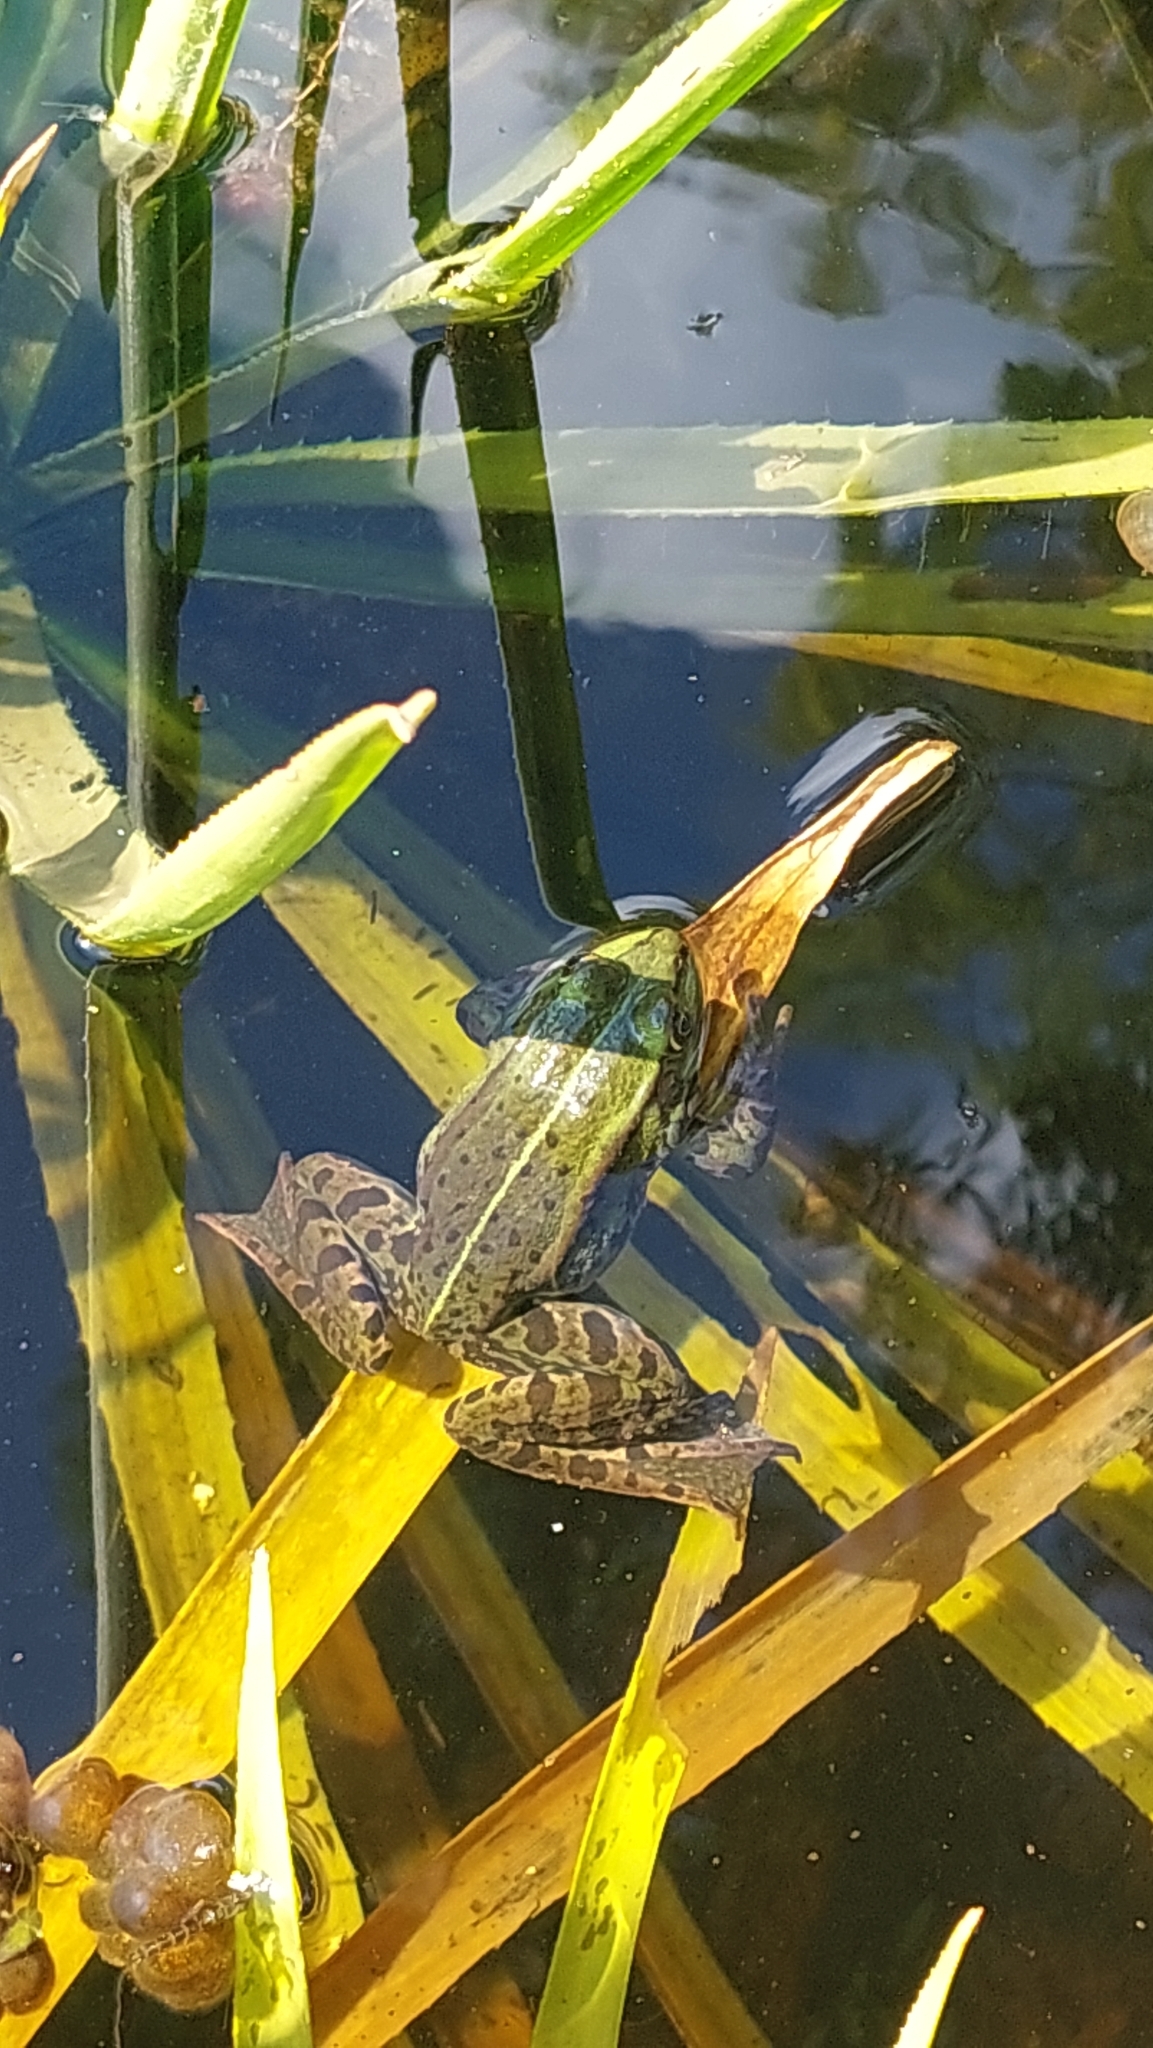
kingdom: Animalia
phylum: Chordata
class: Amphibia
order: Anura
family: Ranidae
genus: Pelophylax
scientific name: Pelophylax ridibundus
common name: Marsh frog
